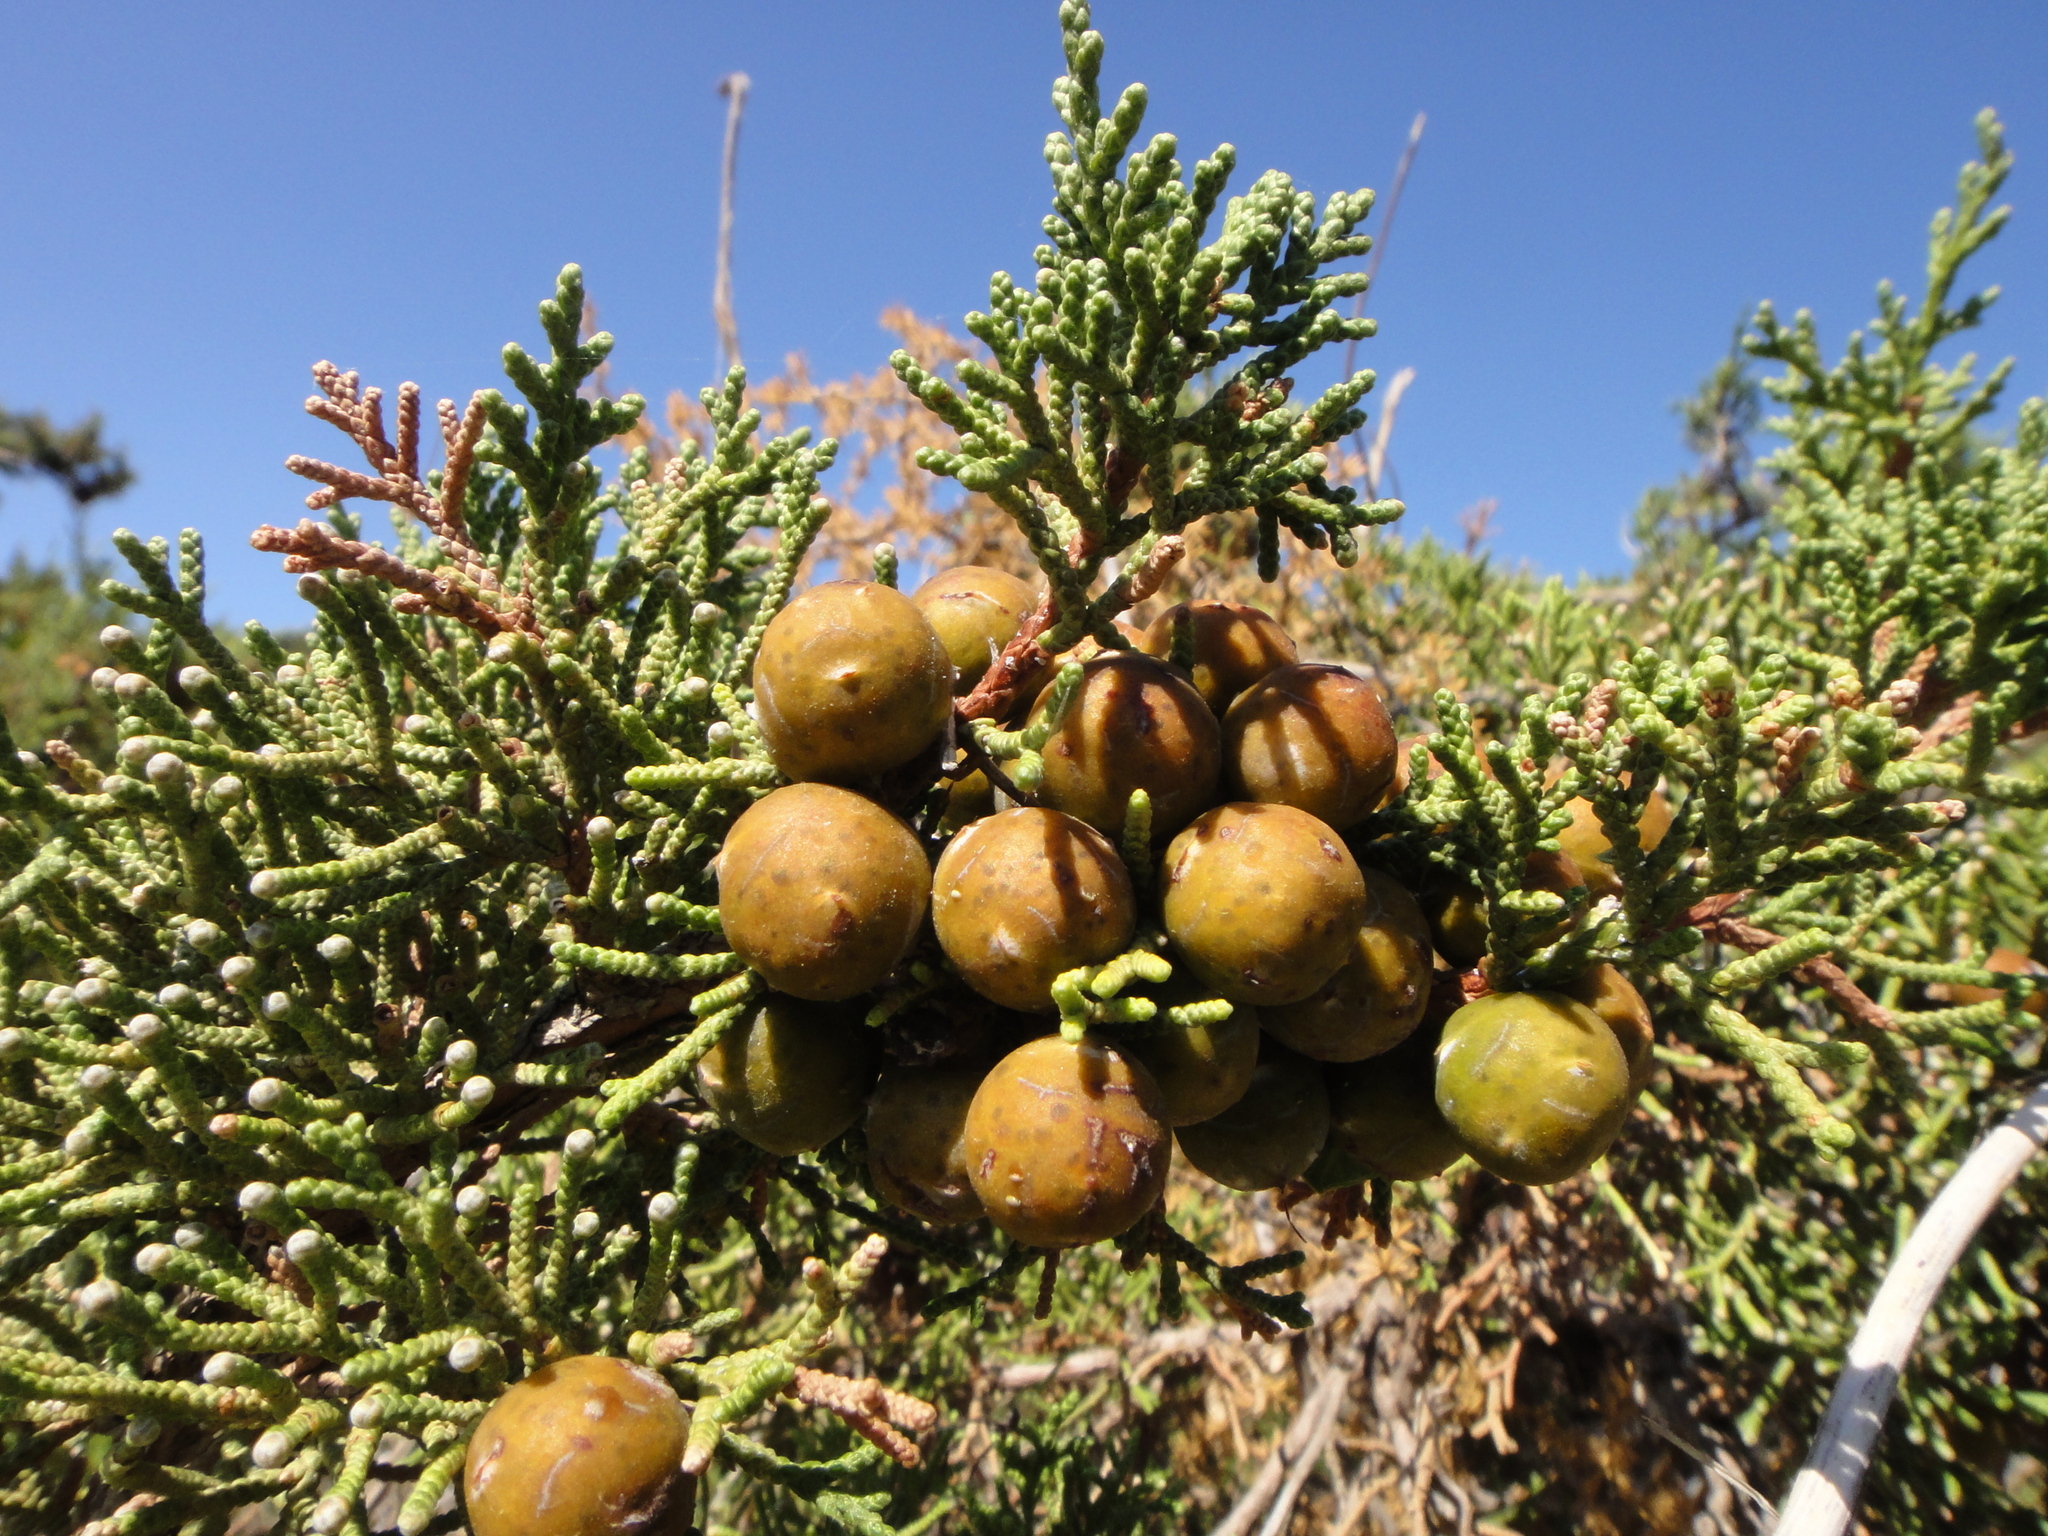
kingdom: Plantae
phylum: Tracheophyta
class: Pinopsida
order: Pinales
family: Cupressaceae
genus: Juniperus
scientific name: Juniperus phoenicea
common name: Phoenician juniper
